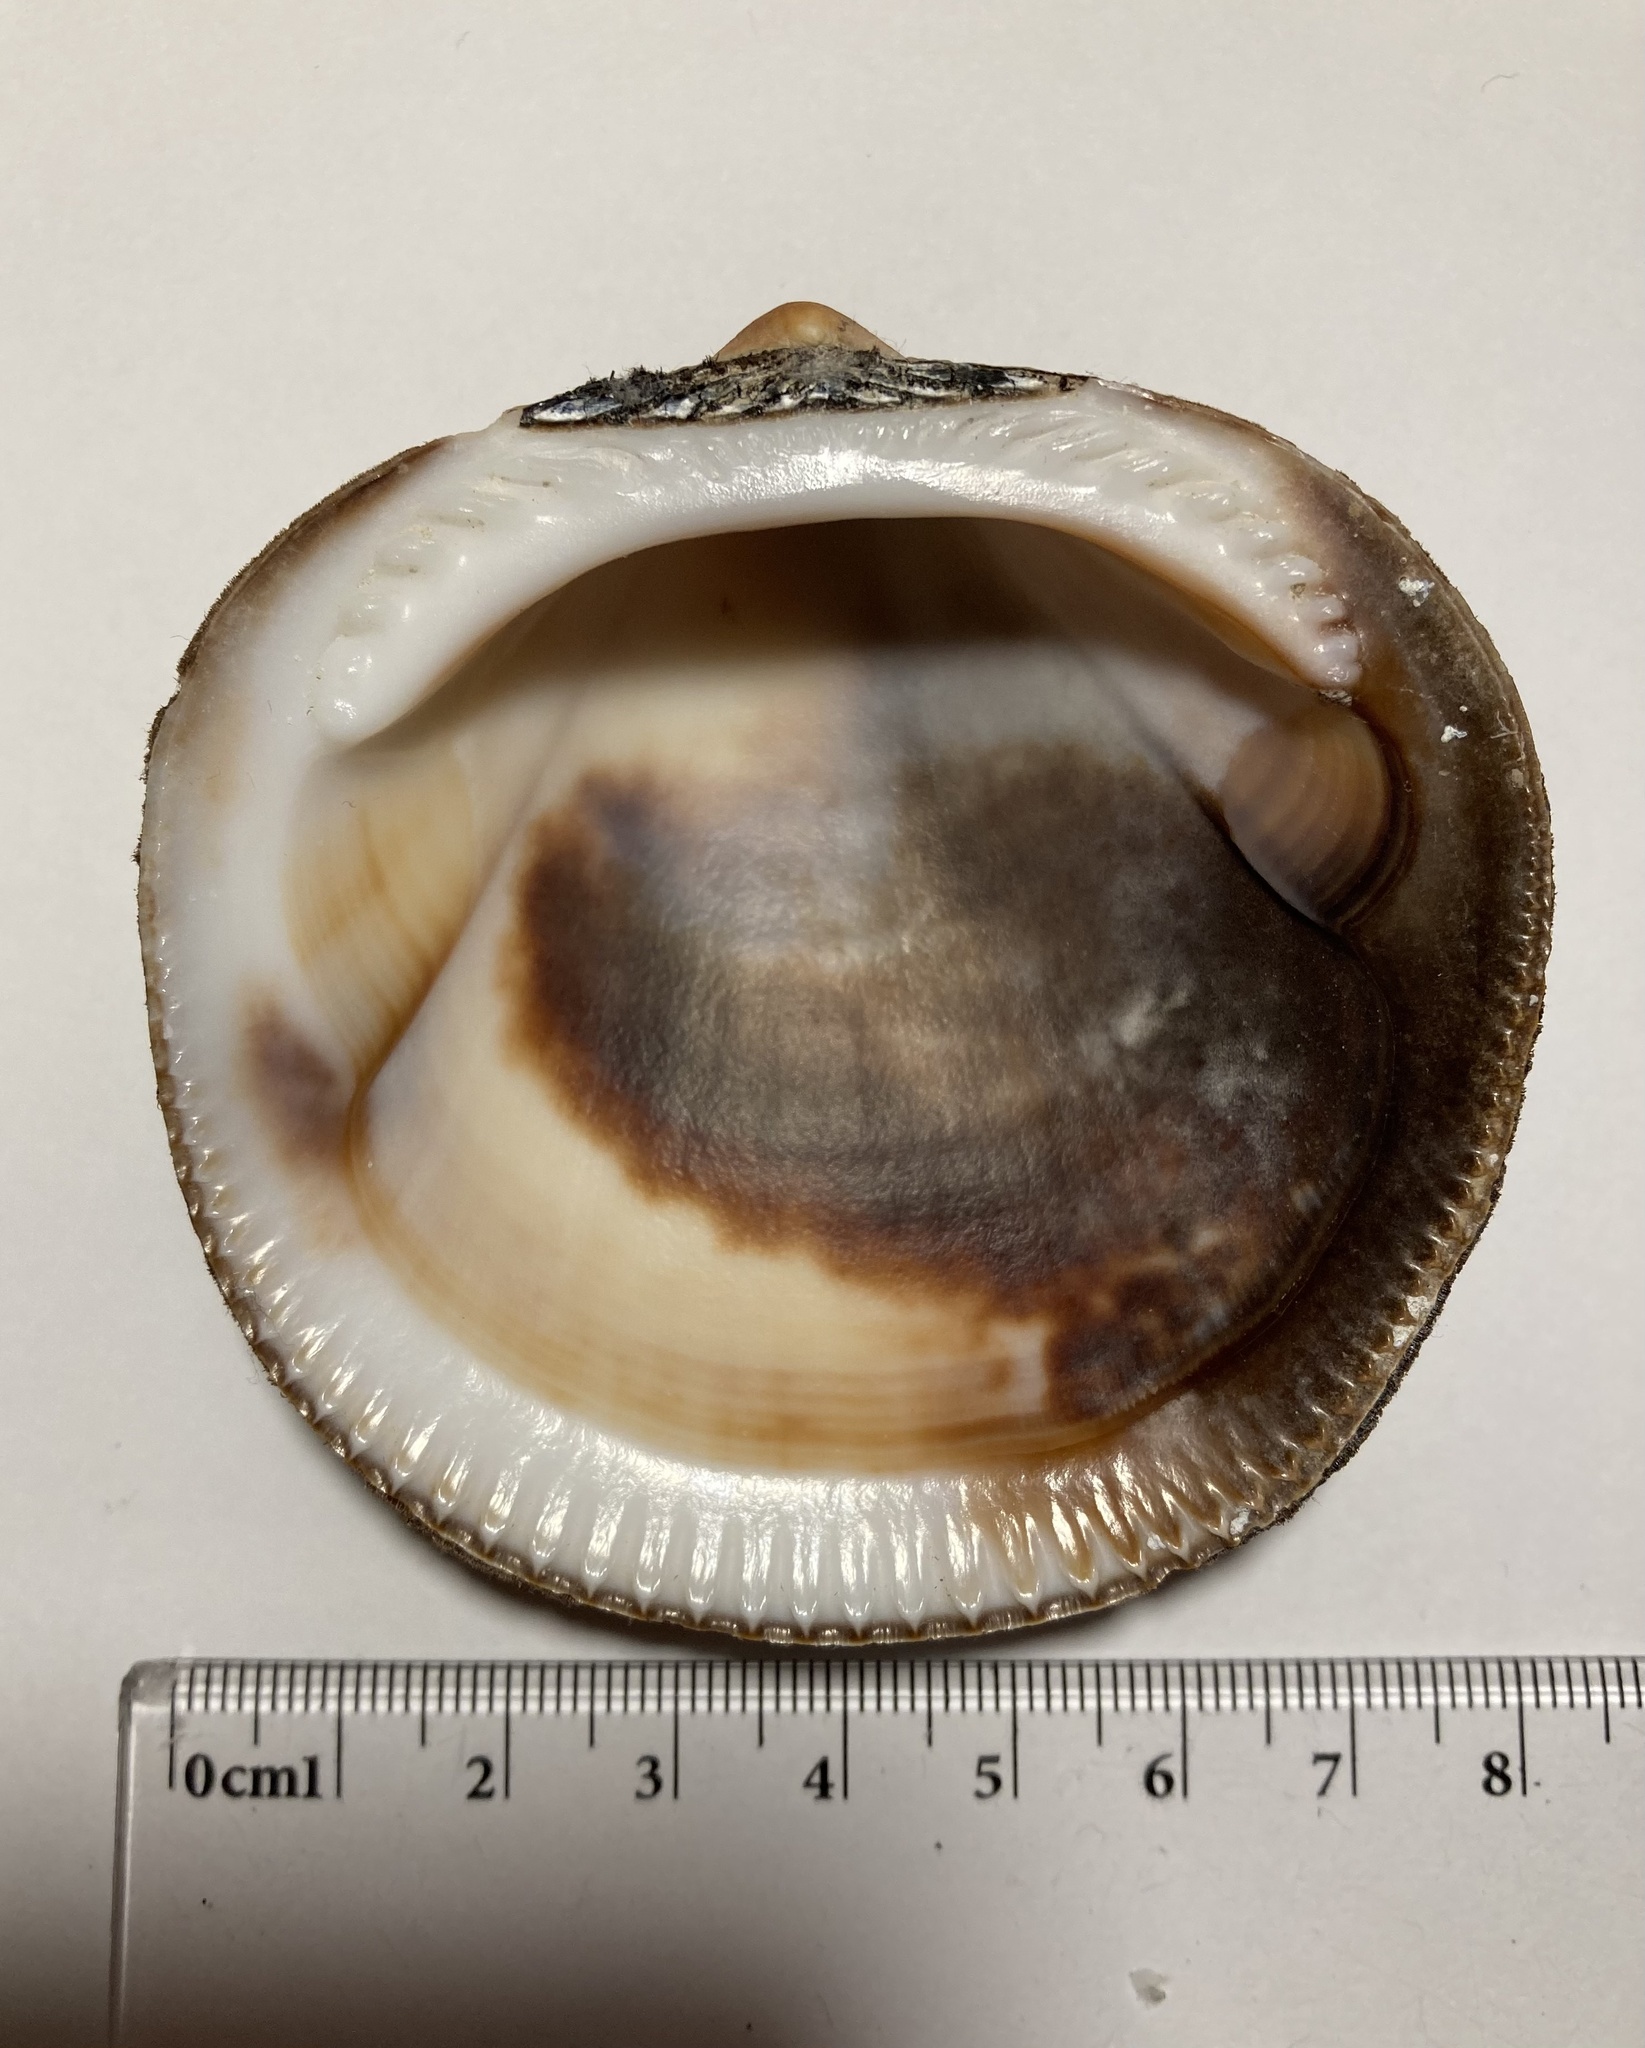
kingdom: Animalia
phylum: Mollusca
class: Bivalvia
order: Arcida
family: Glycymerididae
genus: Glycymeris
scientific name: Glycymeris bimaculata
